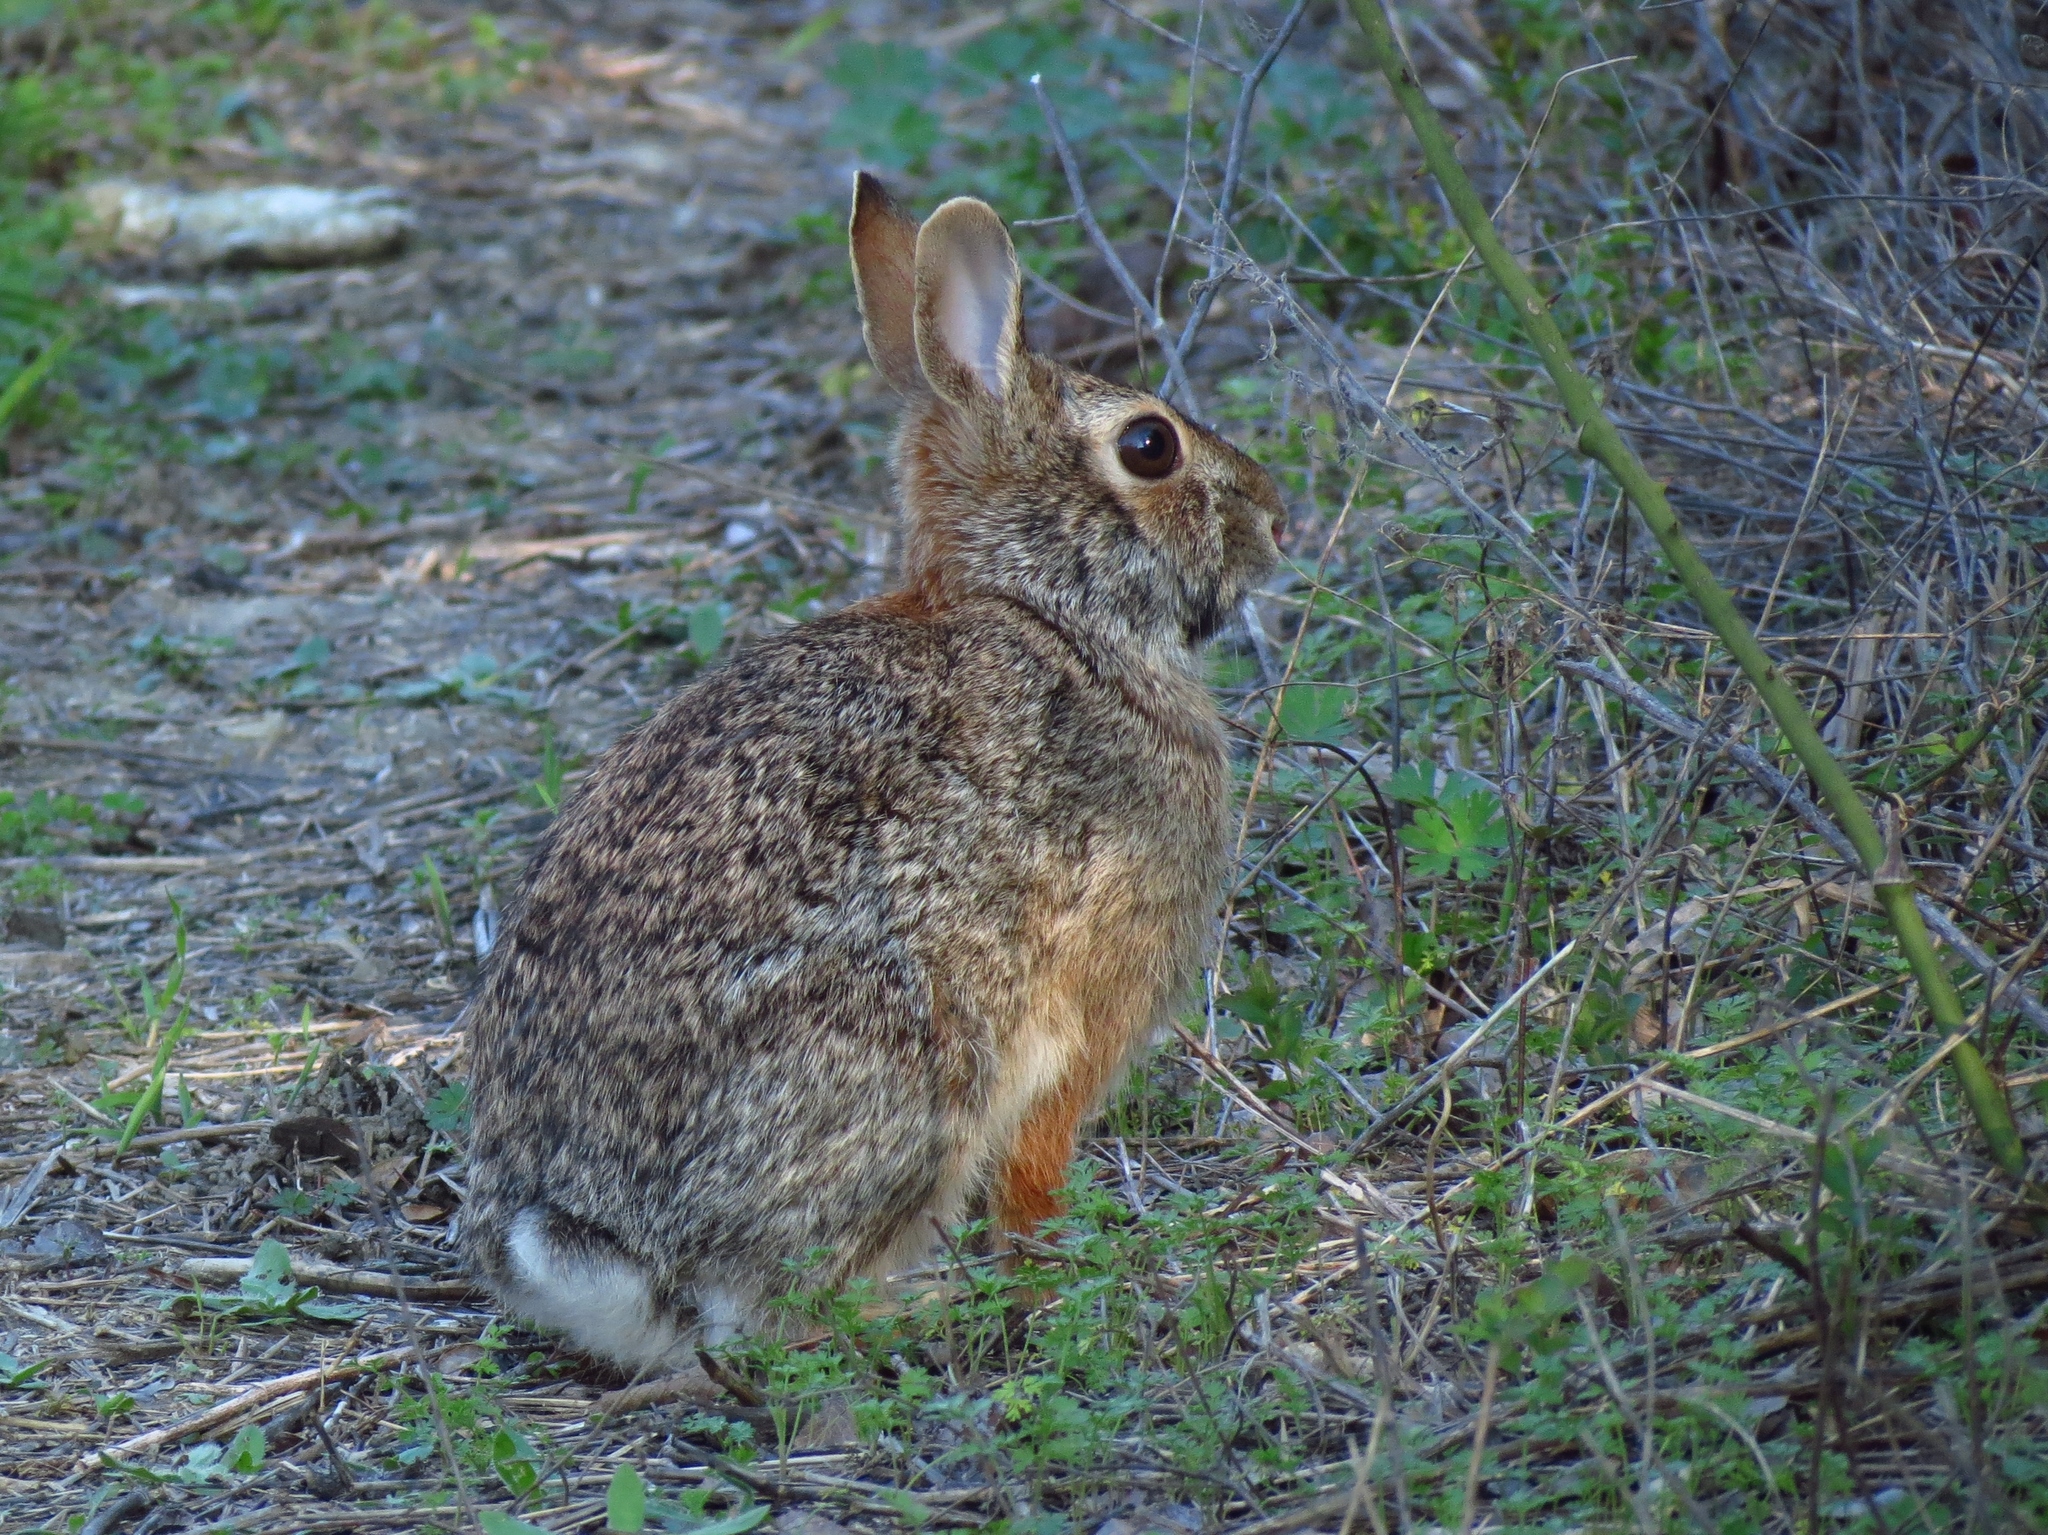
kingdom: Animalia
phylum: Chordata
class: Mammalia
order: Lagomorpha
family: Leporidae
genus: Sylvilagus
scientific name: Sylvilagus floridanus
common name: Eastern cottontail
